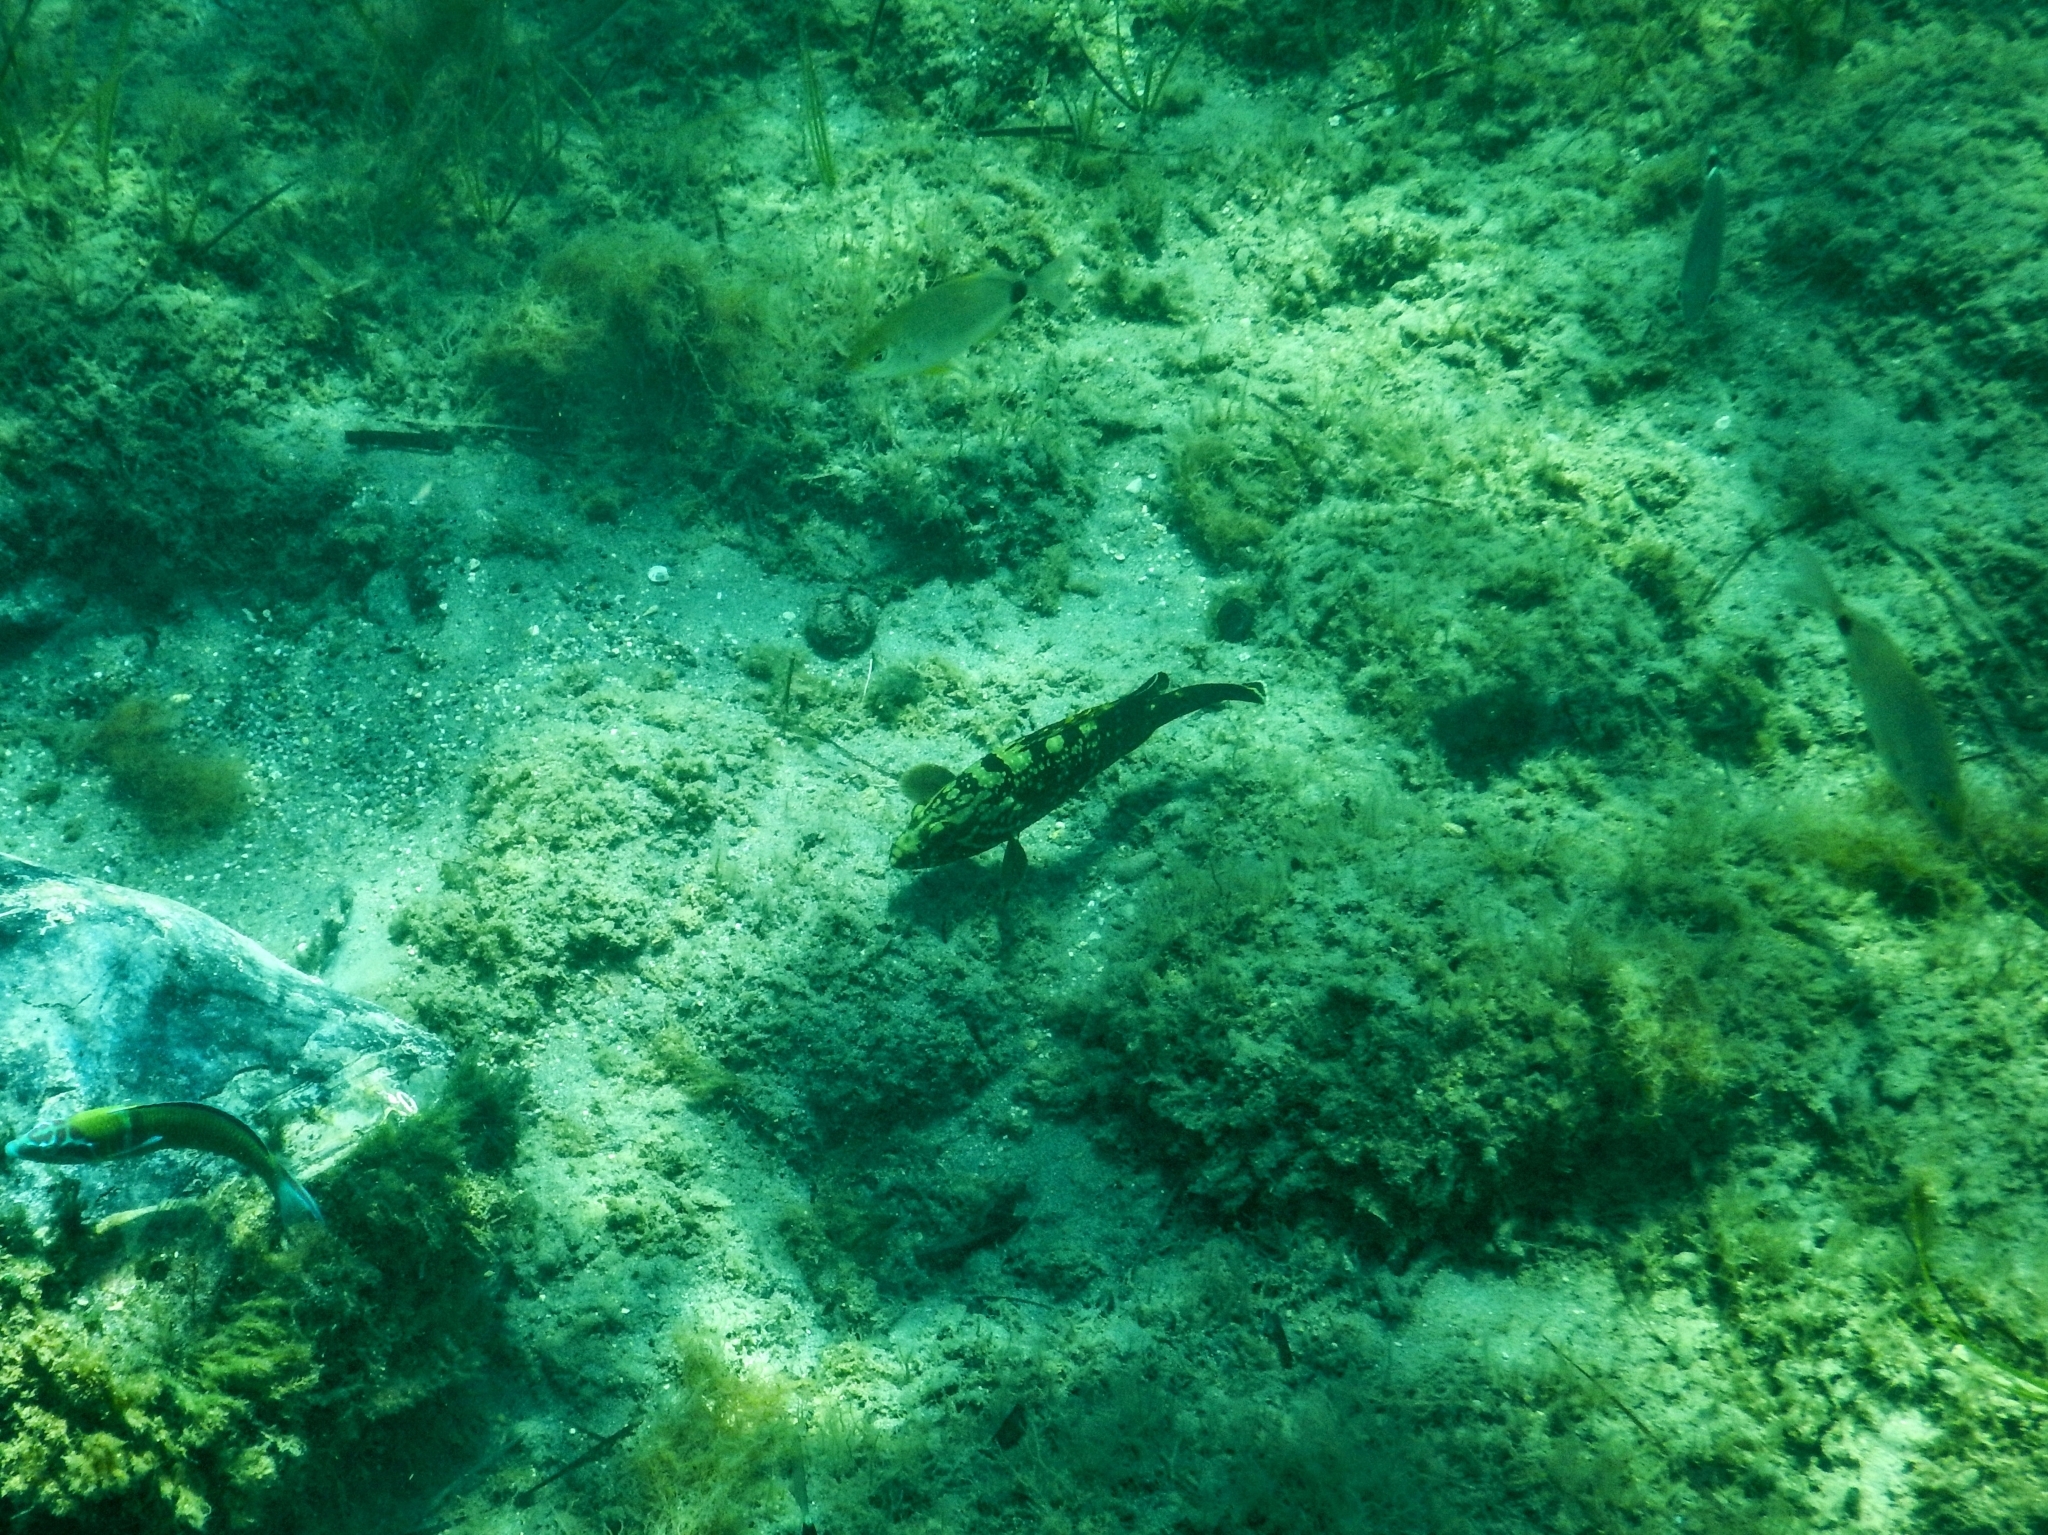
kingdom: Animalia
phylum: Chordata
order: Perciformes
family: Serranidae
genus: Epinephelus
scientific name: Epinephelus marginatus
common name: Dusky grouper
